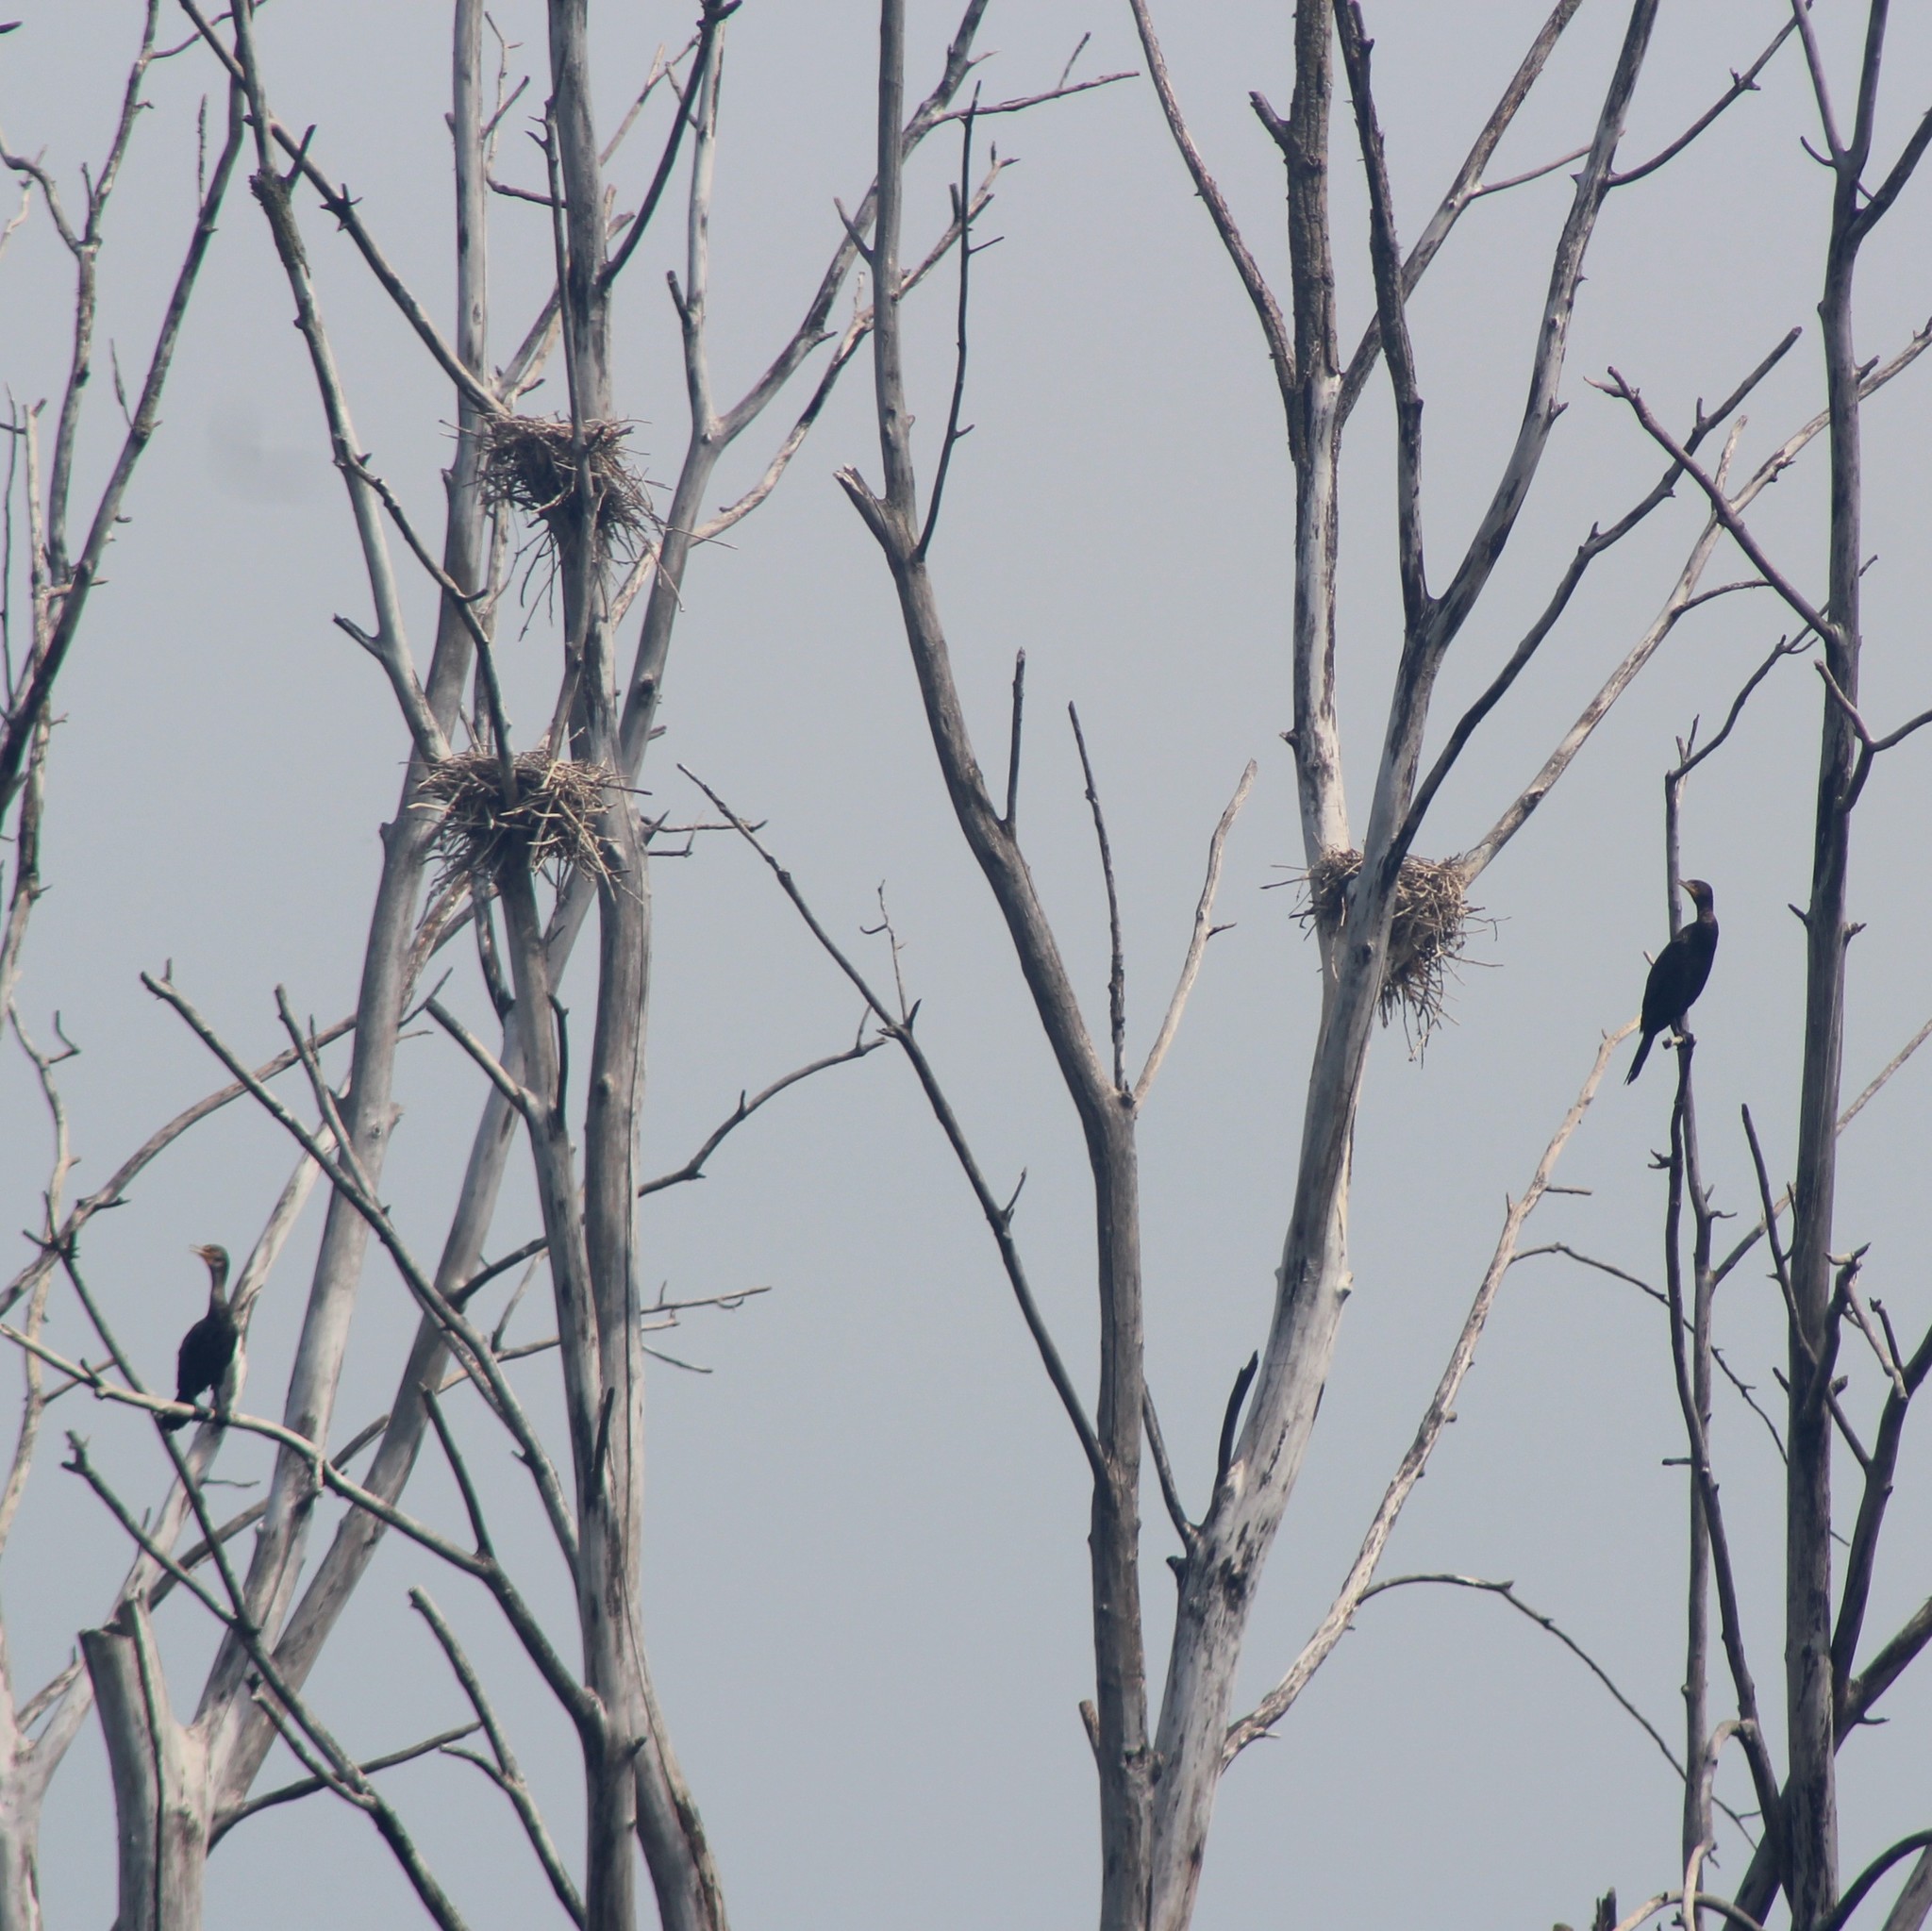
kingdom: Animalia
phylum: Chordata
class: Aves
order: Suliformes
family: Phalacrocoracidae
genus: Phalacrocorax
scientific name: Phalacrocorax auritus
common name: Double-crested cormorant
